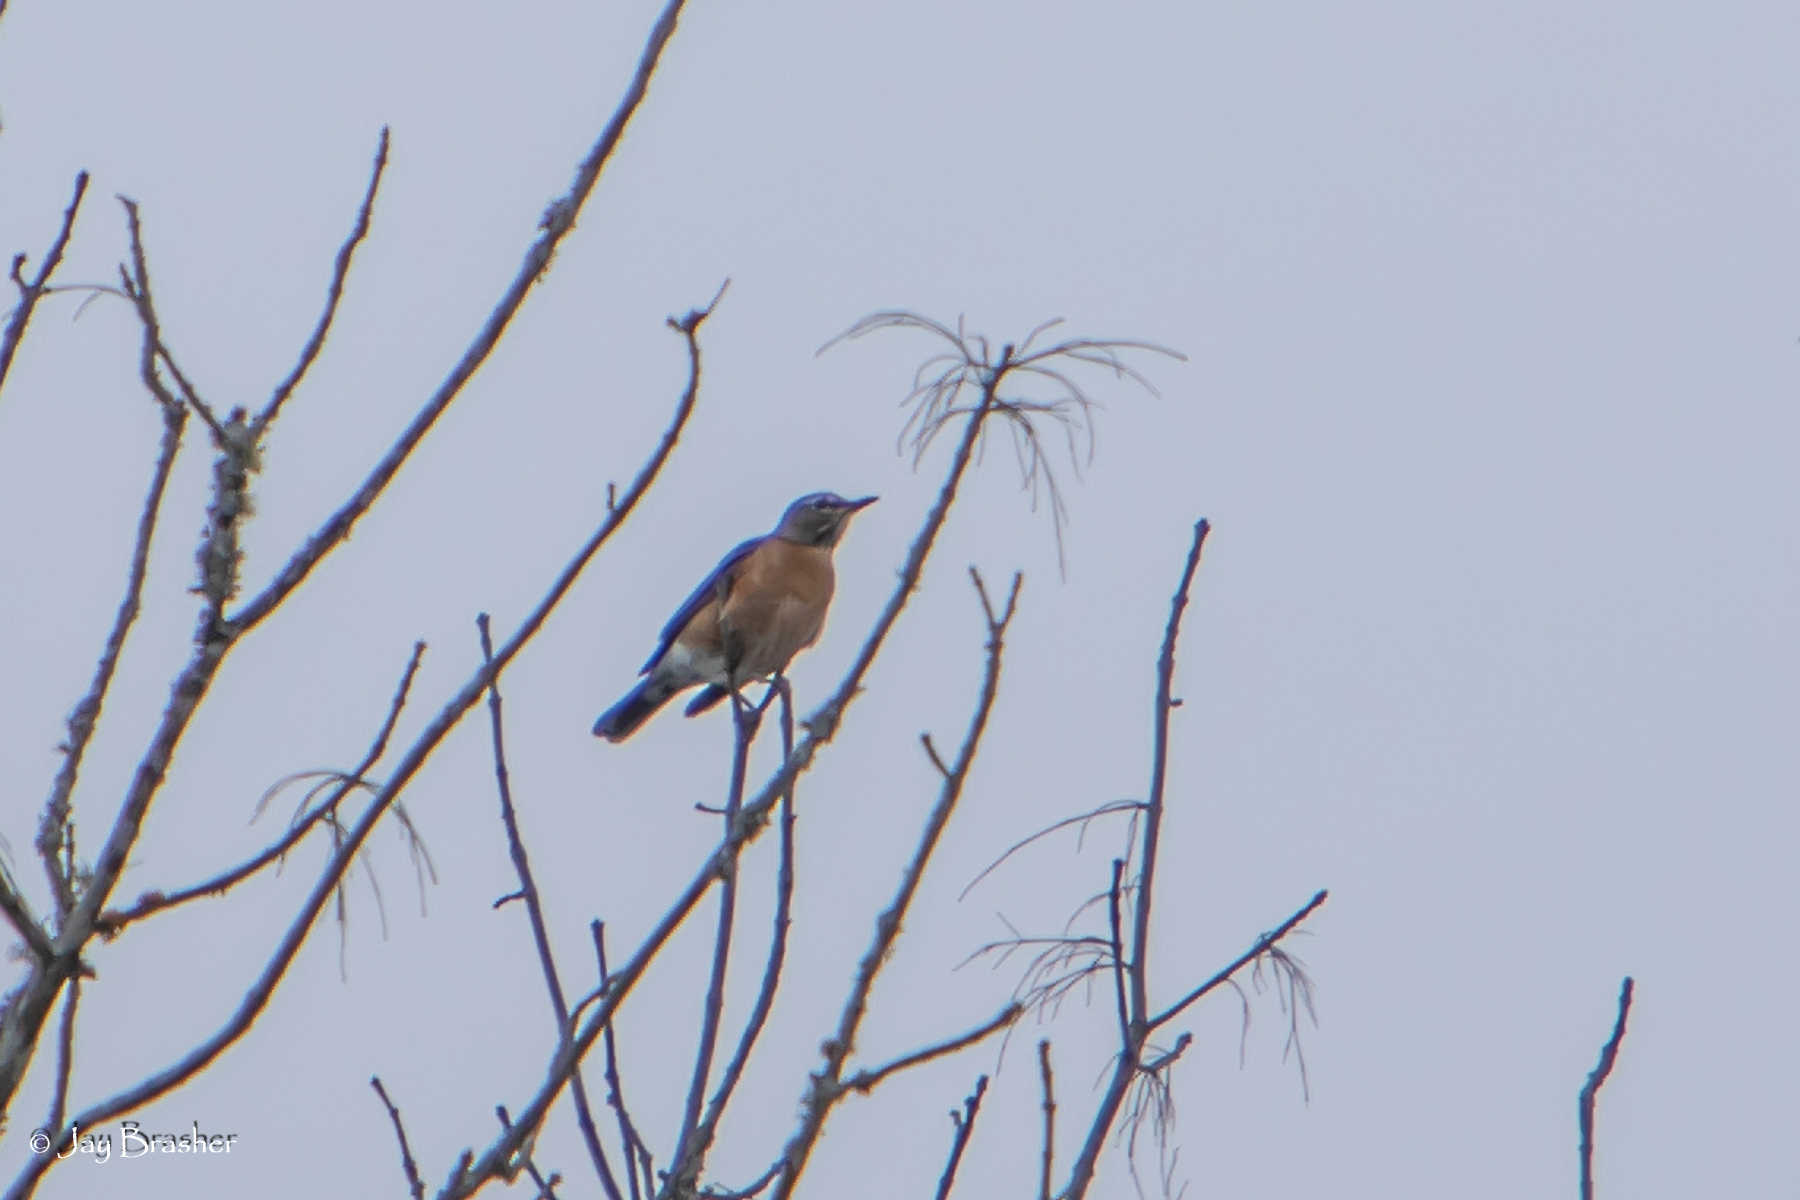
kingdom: Animalia
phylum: Chordata
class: Aves
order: Passeriformes
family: Turdidae
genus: Turdus
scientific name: Turdus migratorius
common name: American robin
